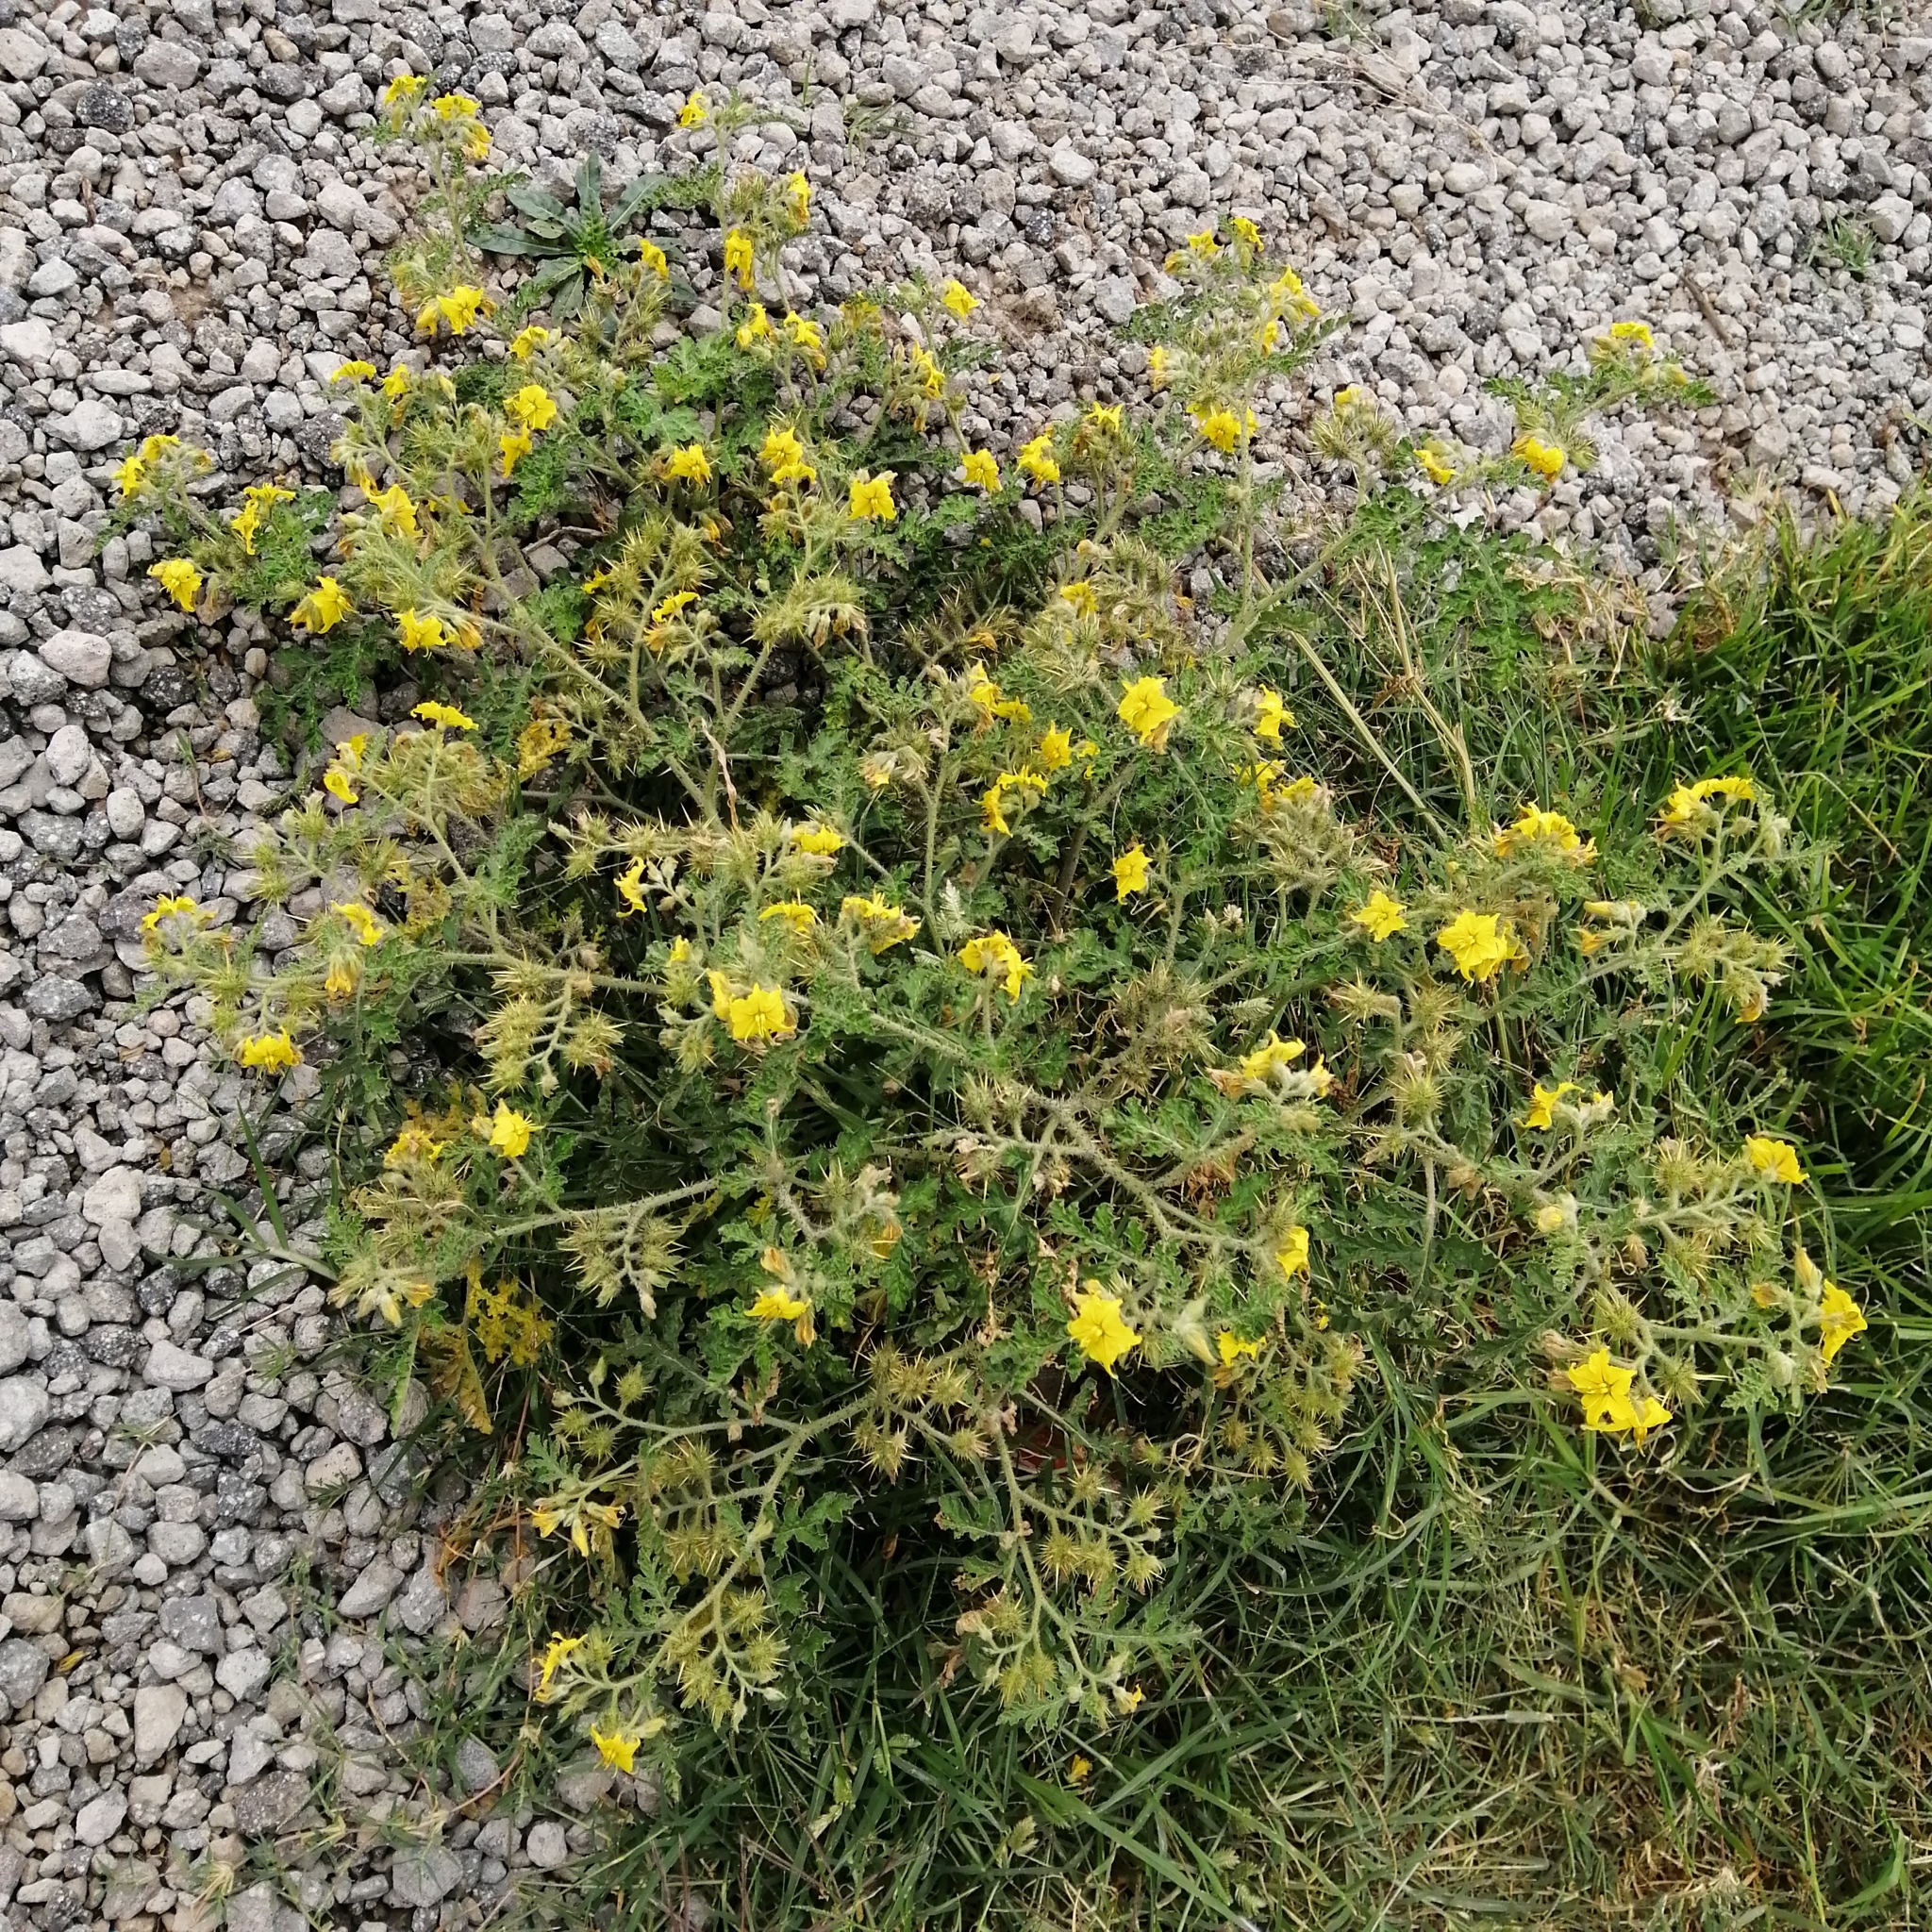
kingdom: Plantae
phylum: Tracheophyta
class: Magnoliopsida
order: Solanales
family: Solanaceae
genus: Solanum
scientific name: Solanum angustifolium
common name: Buffalobur nightshade
